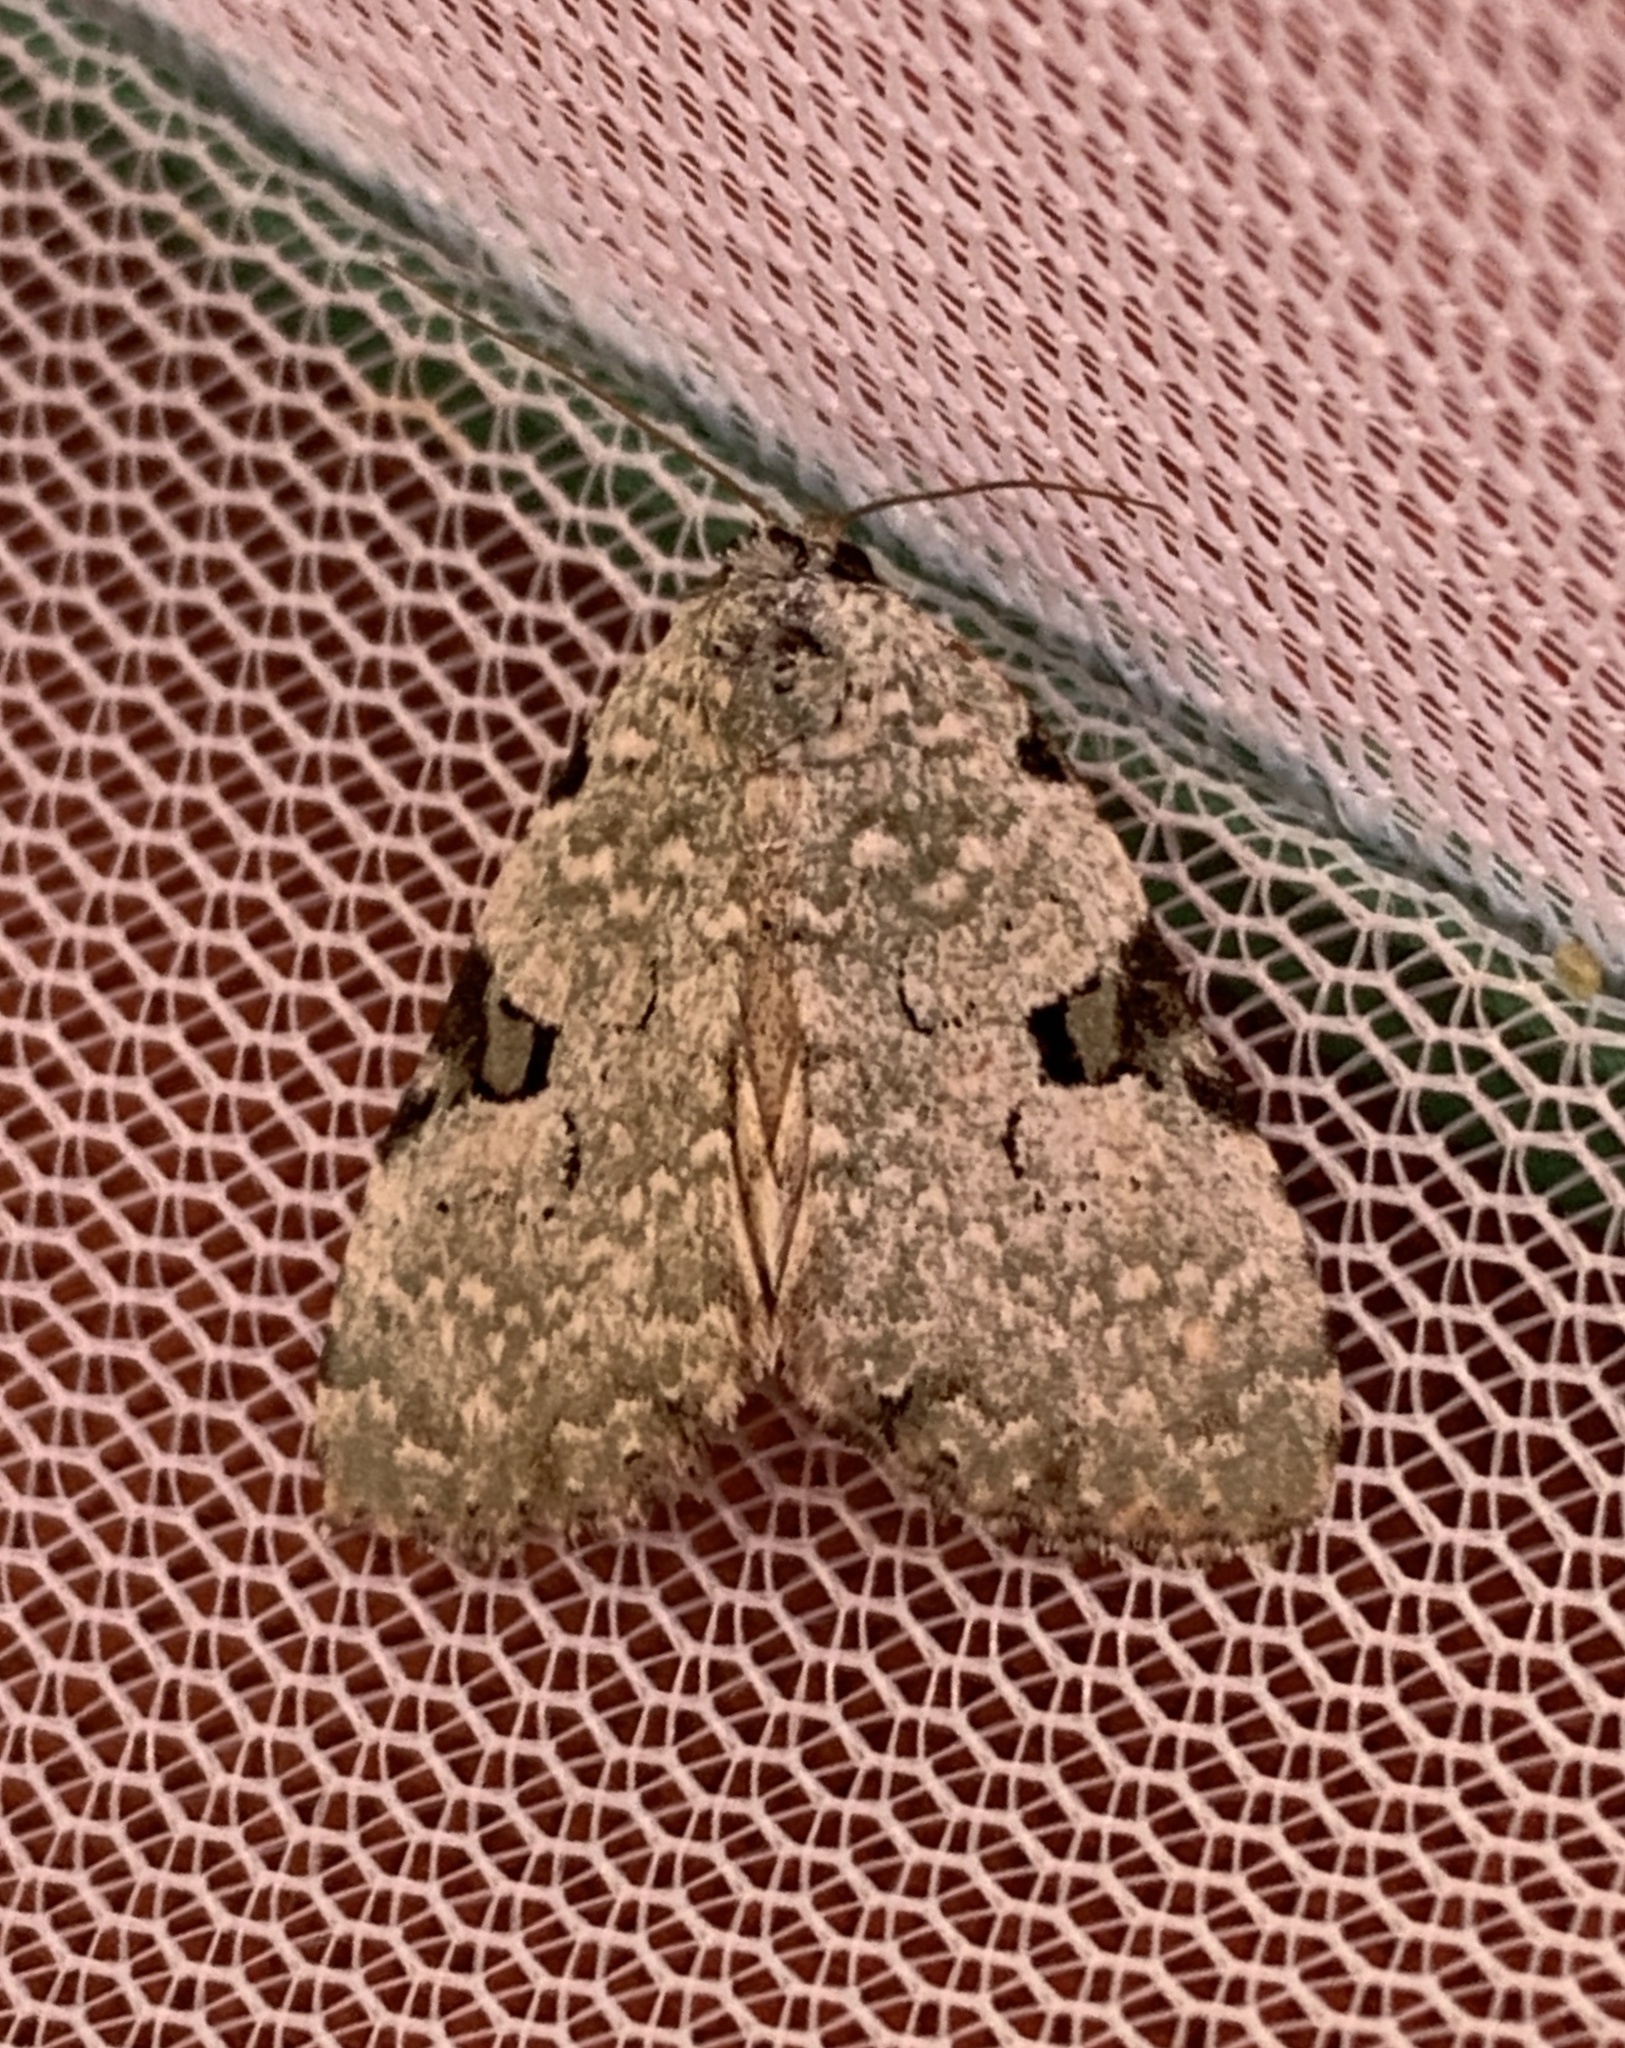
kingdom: Animalia
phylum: Arthropoda
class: Insecta
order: Lepidoptera
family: Noctuidae
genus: Leuconycta
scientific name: Leuconycta diphteroides
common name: Green leuconycta moth
